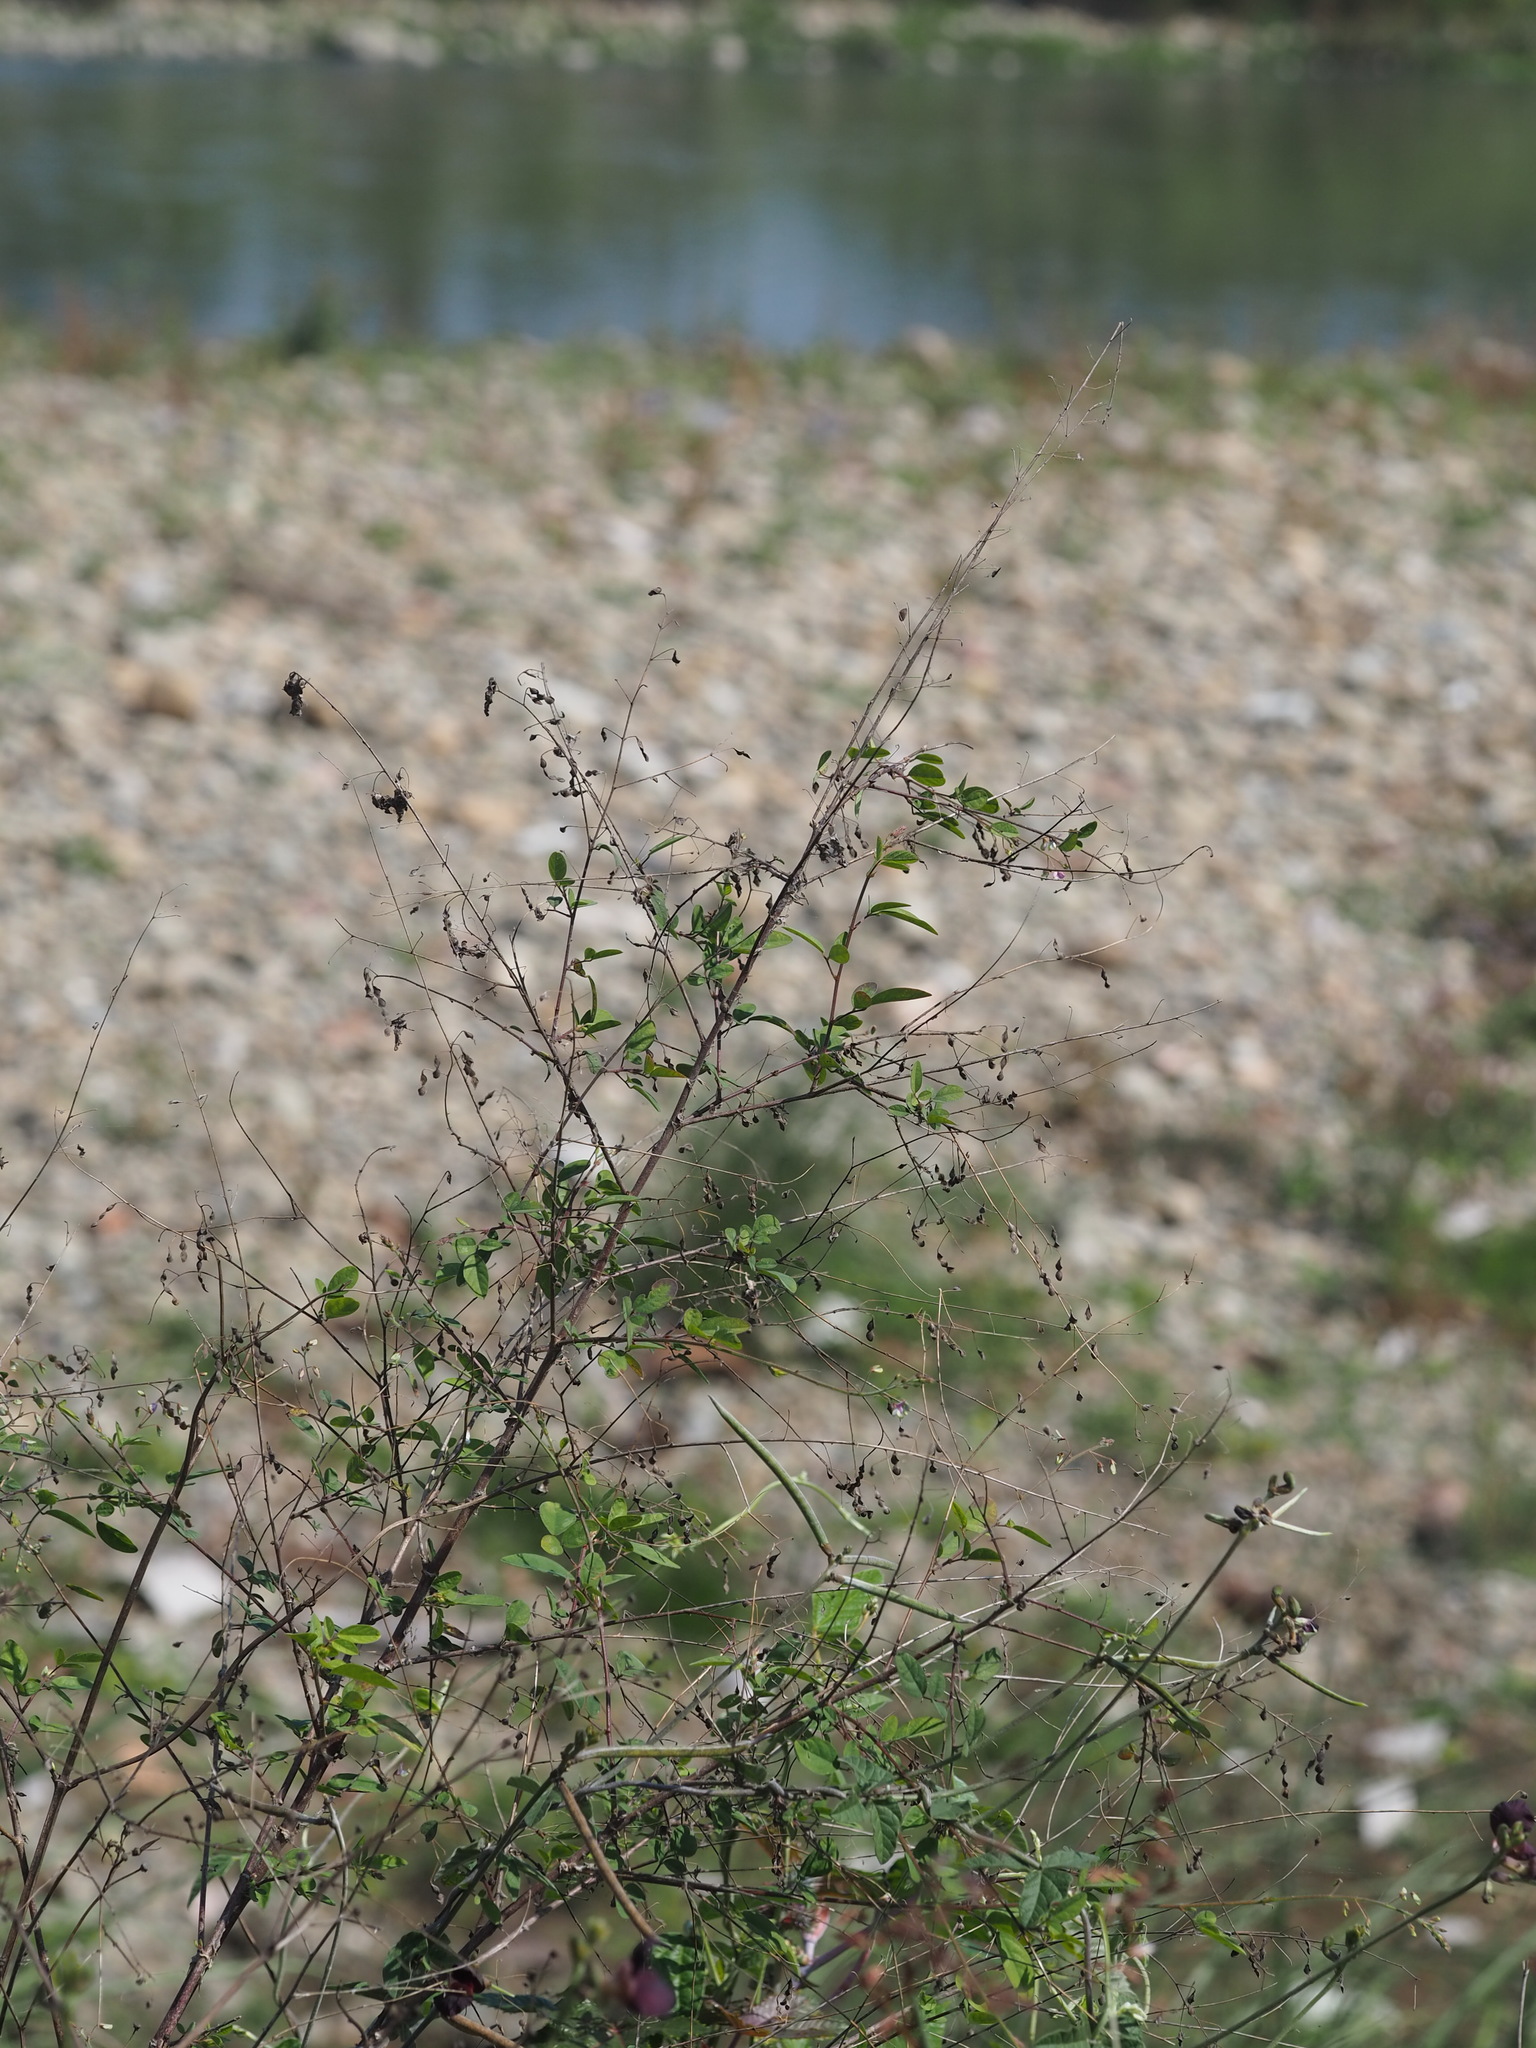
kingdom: Plantae
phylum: Tracheophyta
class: Magnoliopsida
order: Fabales
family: Fabaceae
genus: Desmodium
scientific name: Desmodium tortuosum
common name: Dixie ticktrefoil
